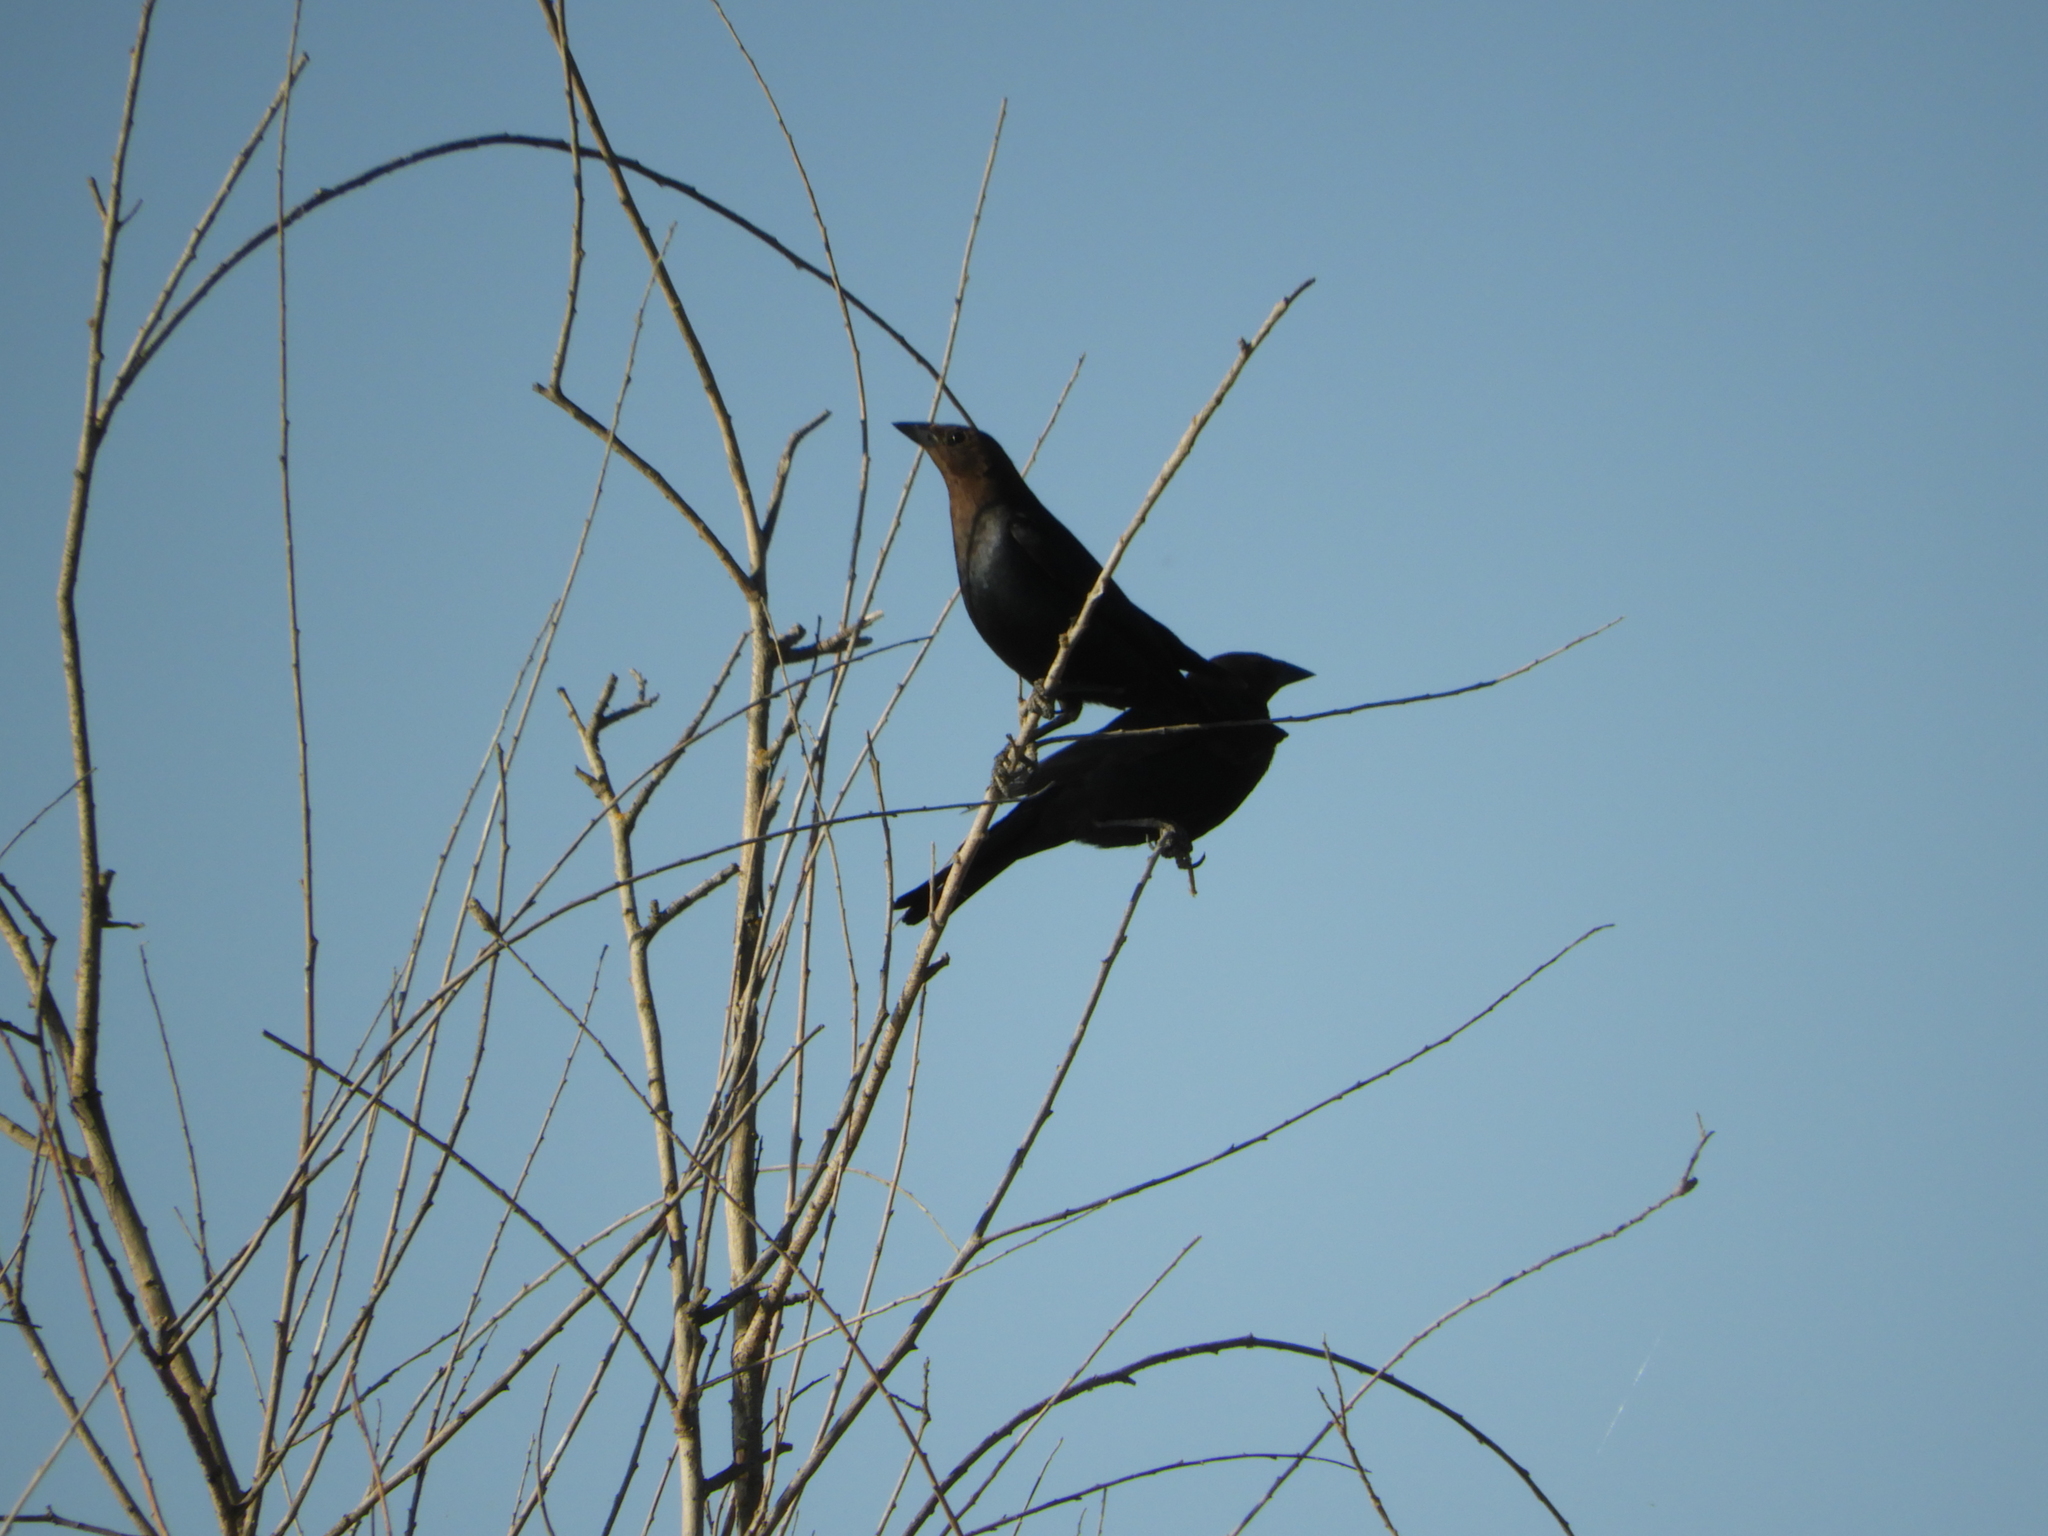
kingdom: Animalia
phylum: Chordata
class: Aves
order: Passeriformes
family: Icteridae
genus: Molothrus
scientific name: Molothrus ater
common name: Brown-headed cowbird
